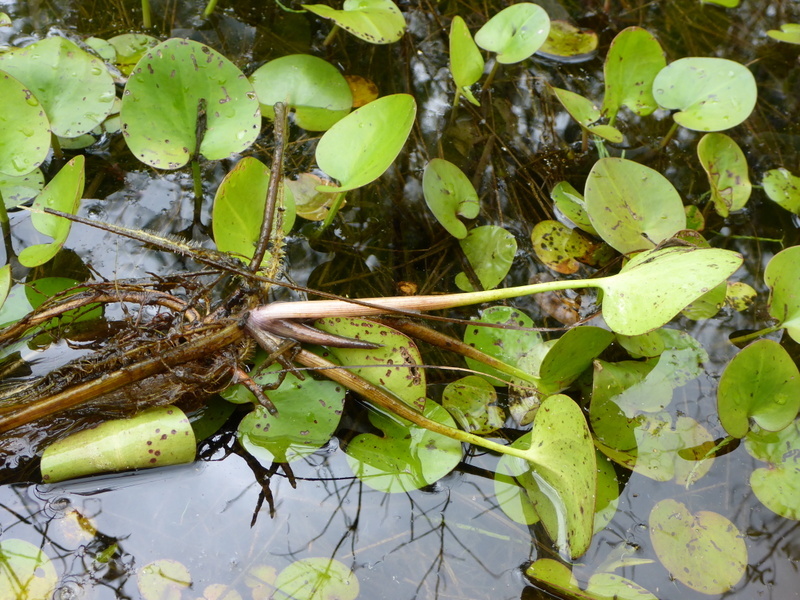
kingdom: Plantae
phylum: Tracheophyta
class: Liliopsida
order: Alismatales
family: Hydrocharitaceae
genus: Hydrocharis
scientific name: Hydrocharis spongia
